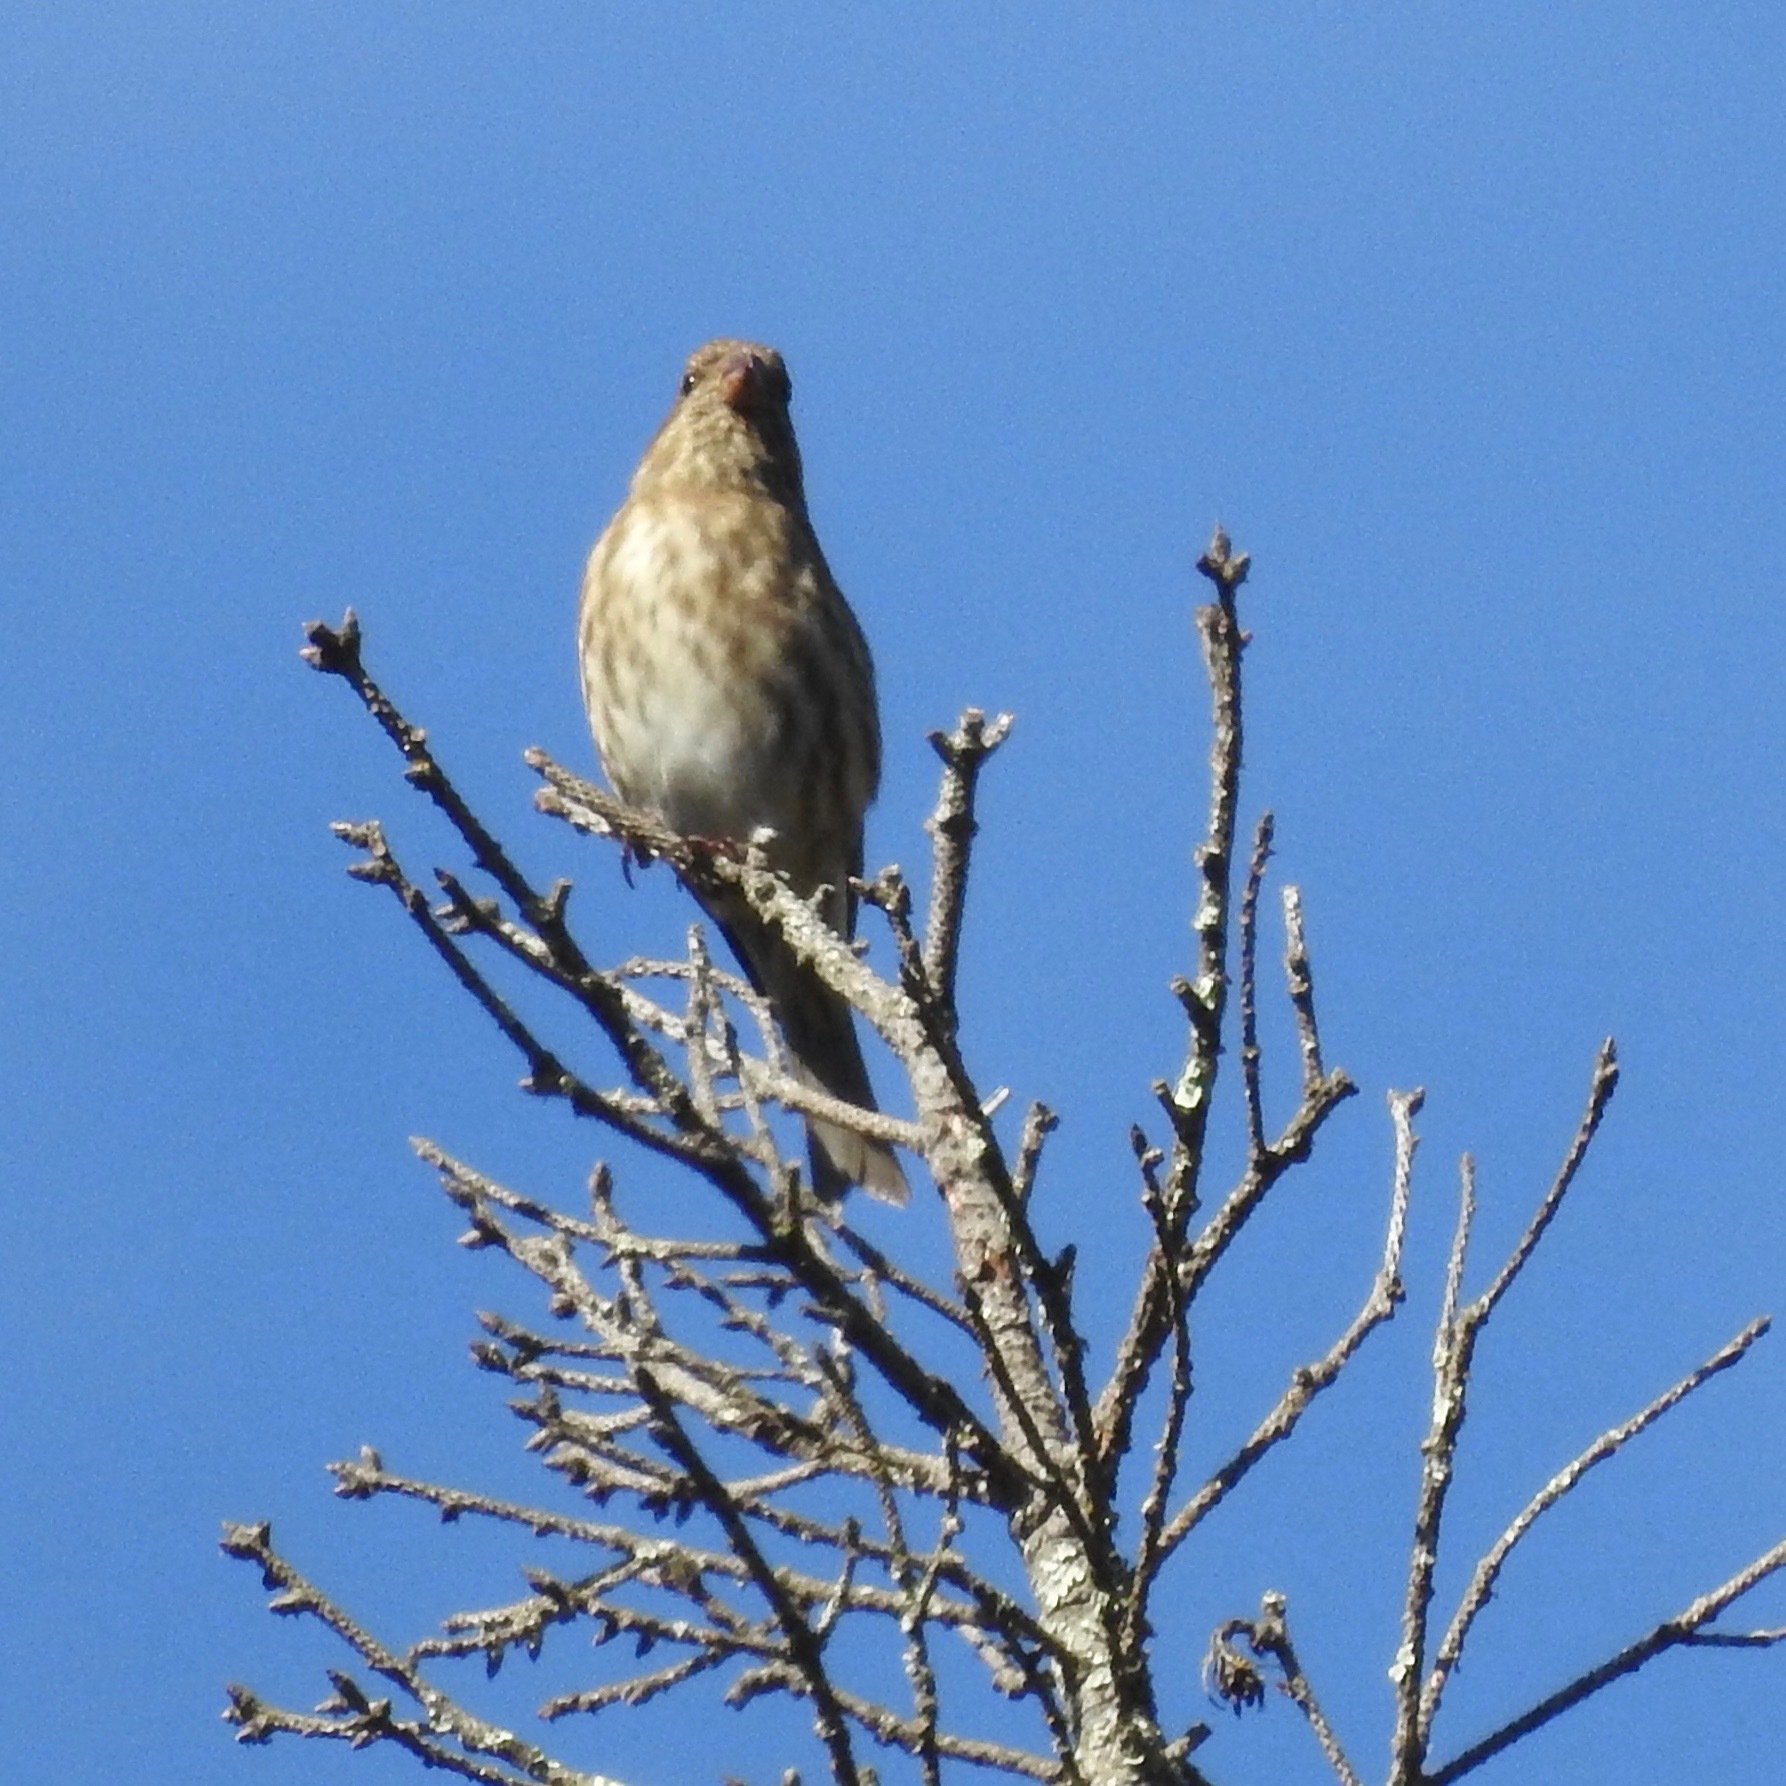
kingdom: Animalia
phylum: Chordata
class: Aves
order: Passeriformes
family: Fringillidae
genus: Haemorhous
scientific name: Haemorhous mexicanus
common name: House finch
